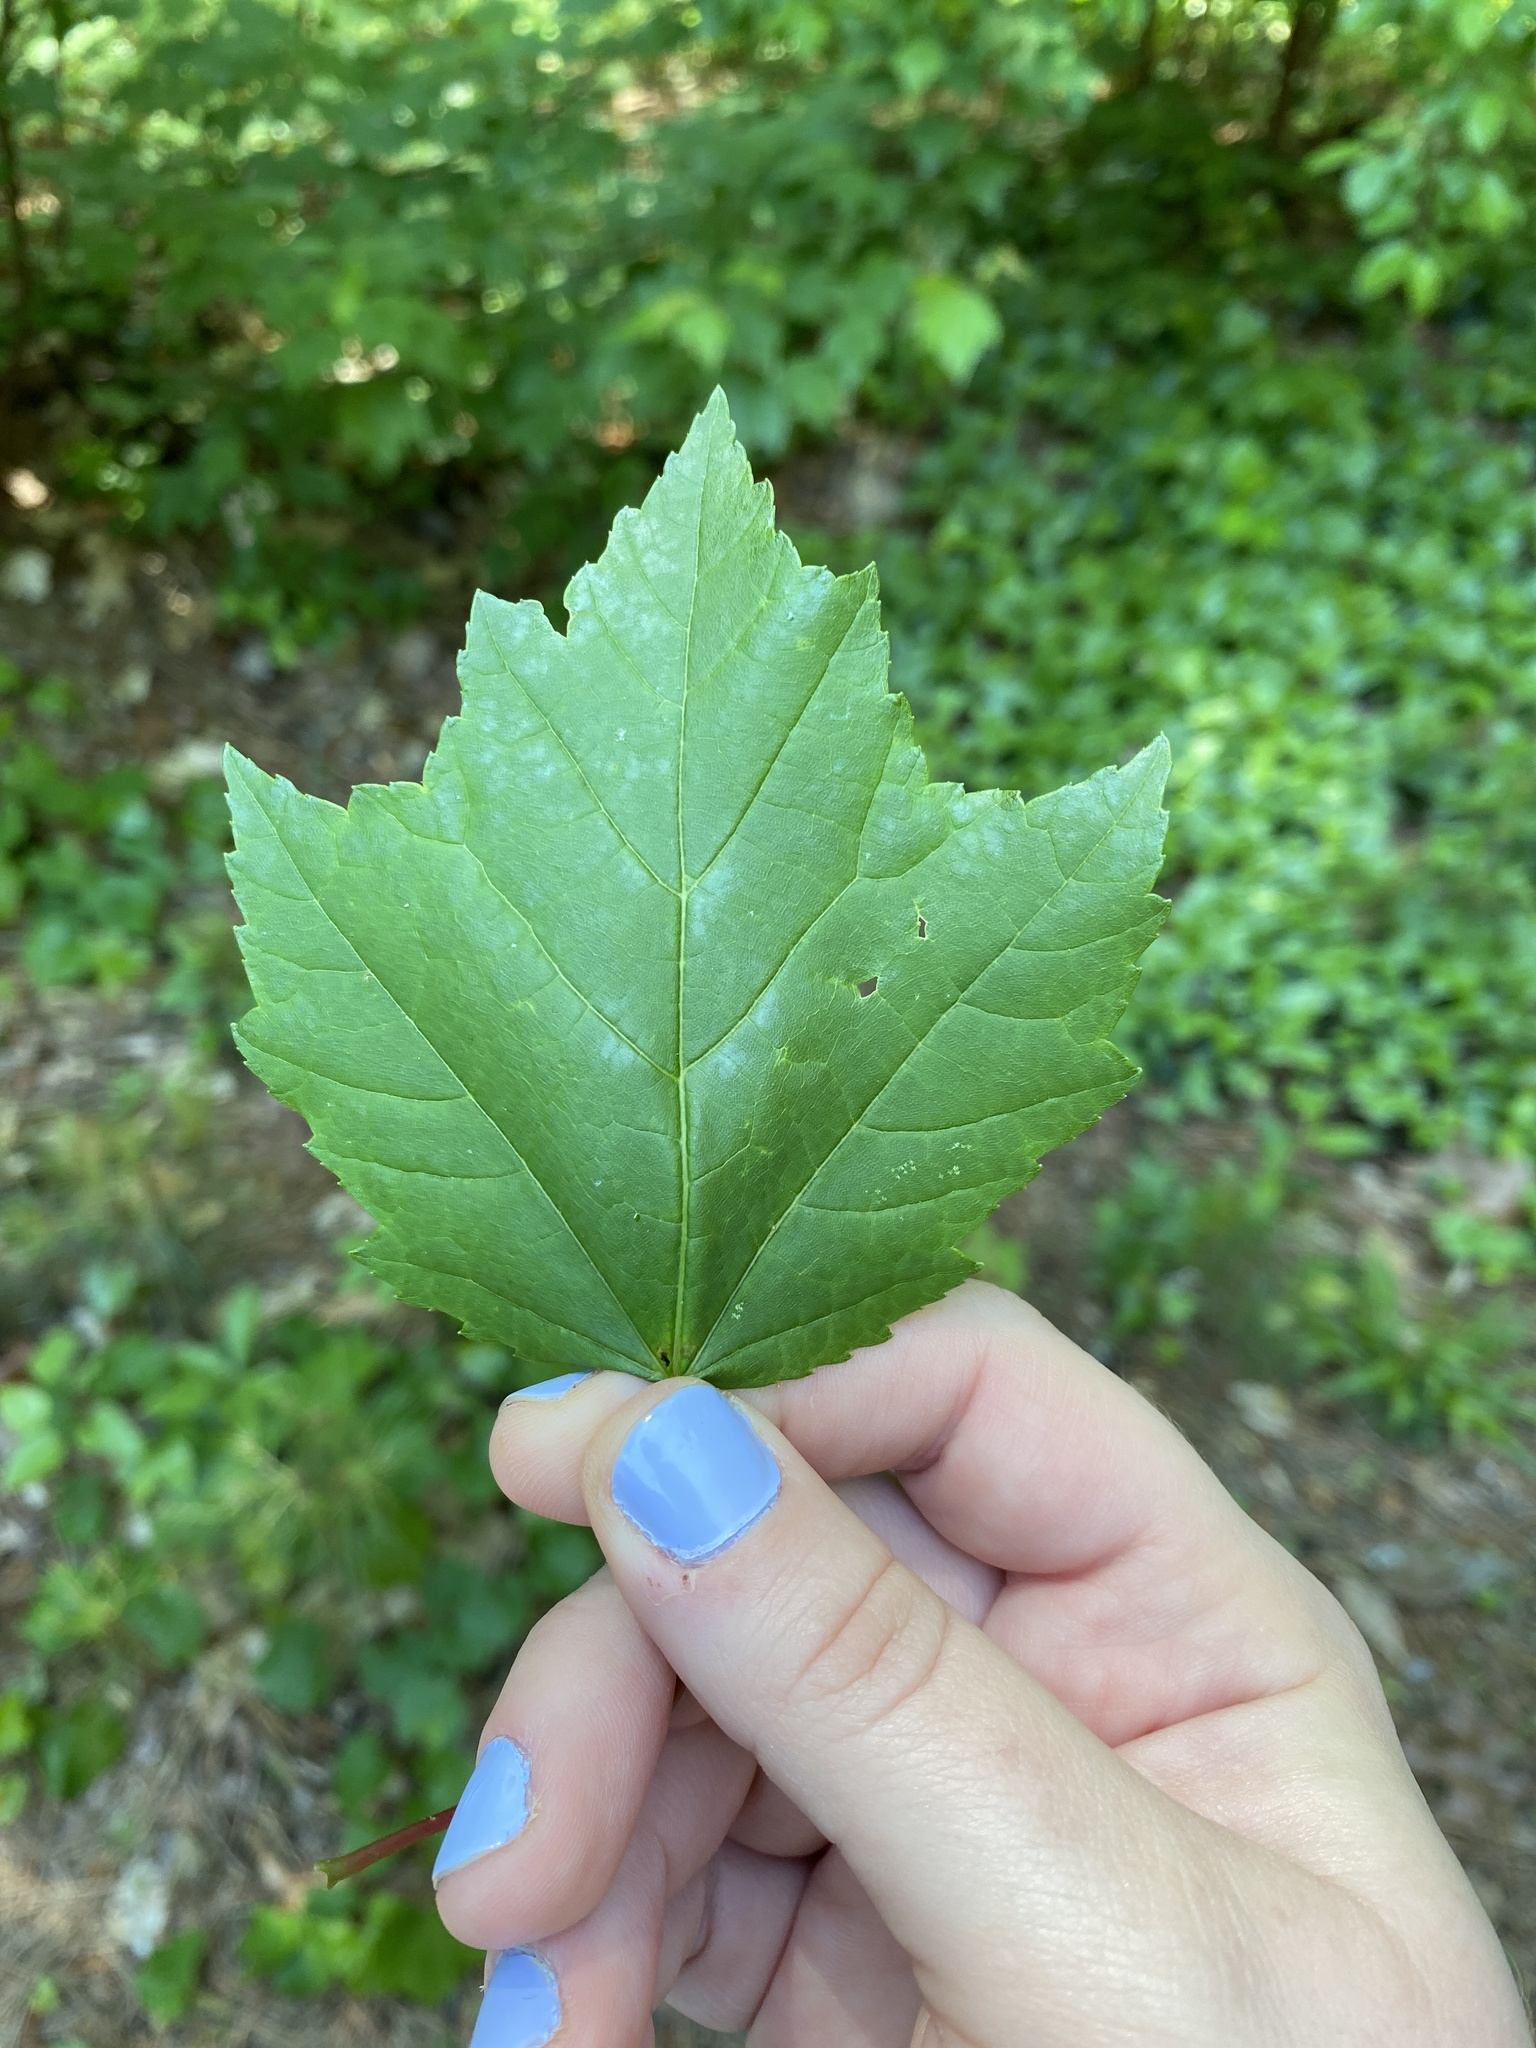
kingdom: Plantae
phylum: Tracheophyta
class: Magnoliopsida
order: Sapindales
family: Sapindaceae
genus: Acer
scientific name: Acer rubrum
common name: Red maple
